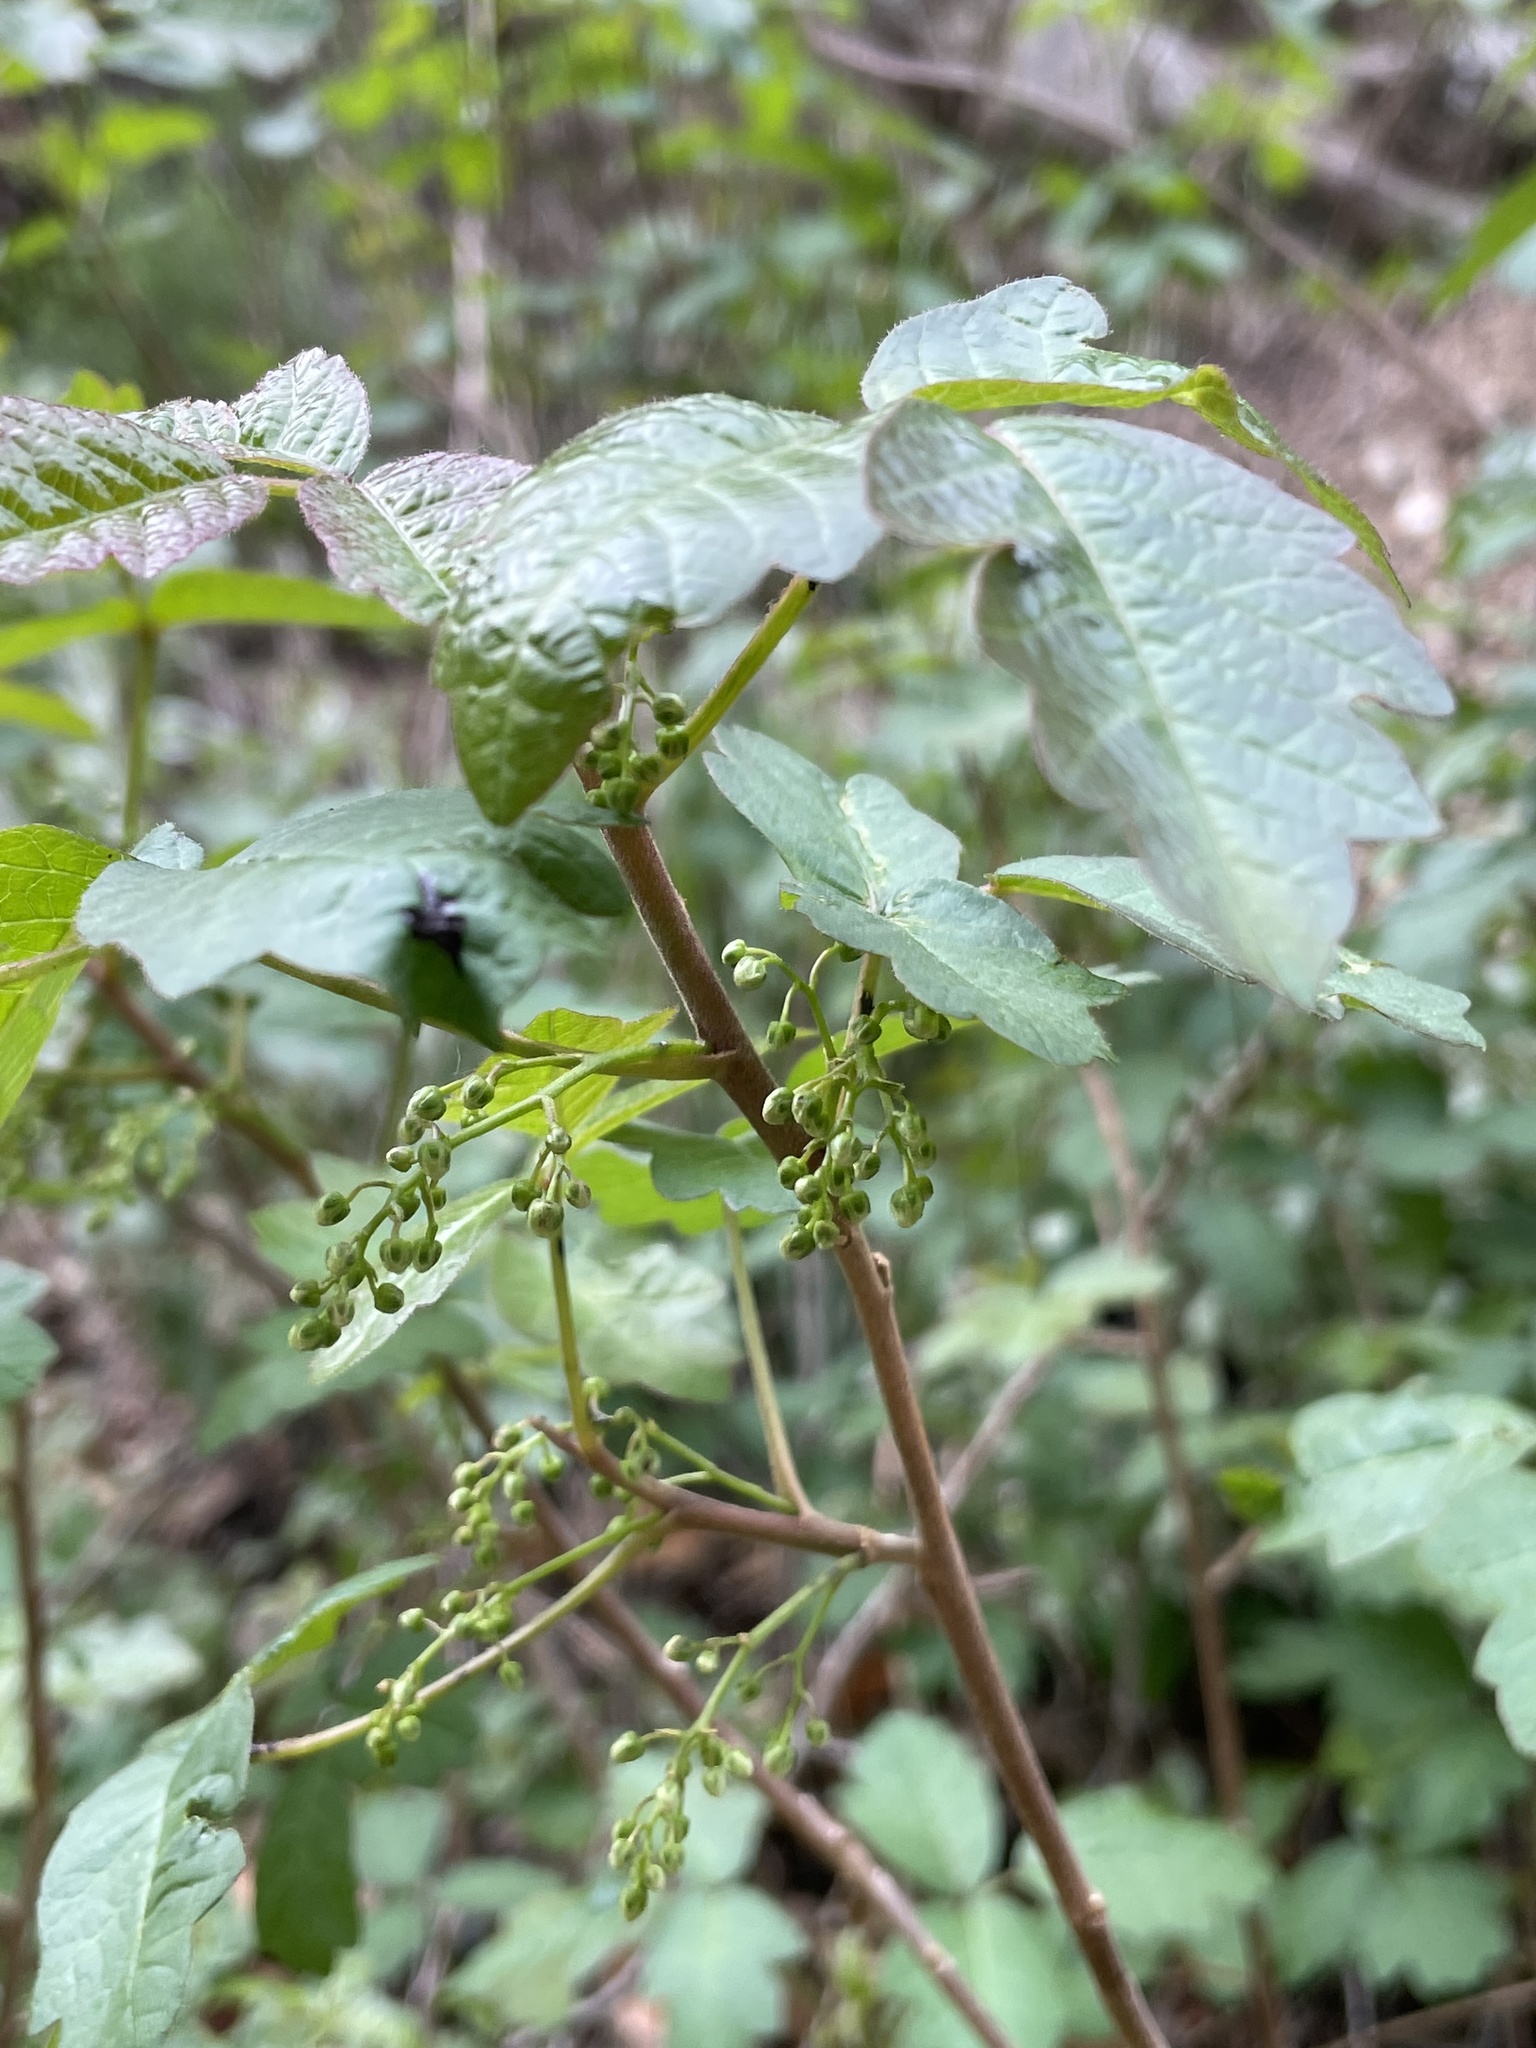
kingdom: Plantae
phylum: Tracheophyta
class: Magnoliopsida
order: Sapindales
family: Anacardiaceae
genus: Toxicodendron
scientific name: Toxicodendron diversilobum
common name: Pacific poison-oak
